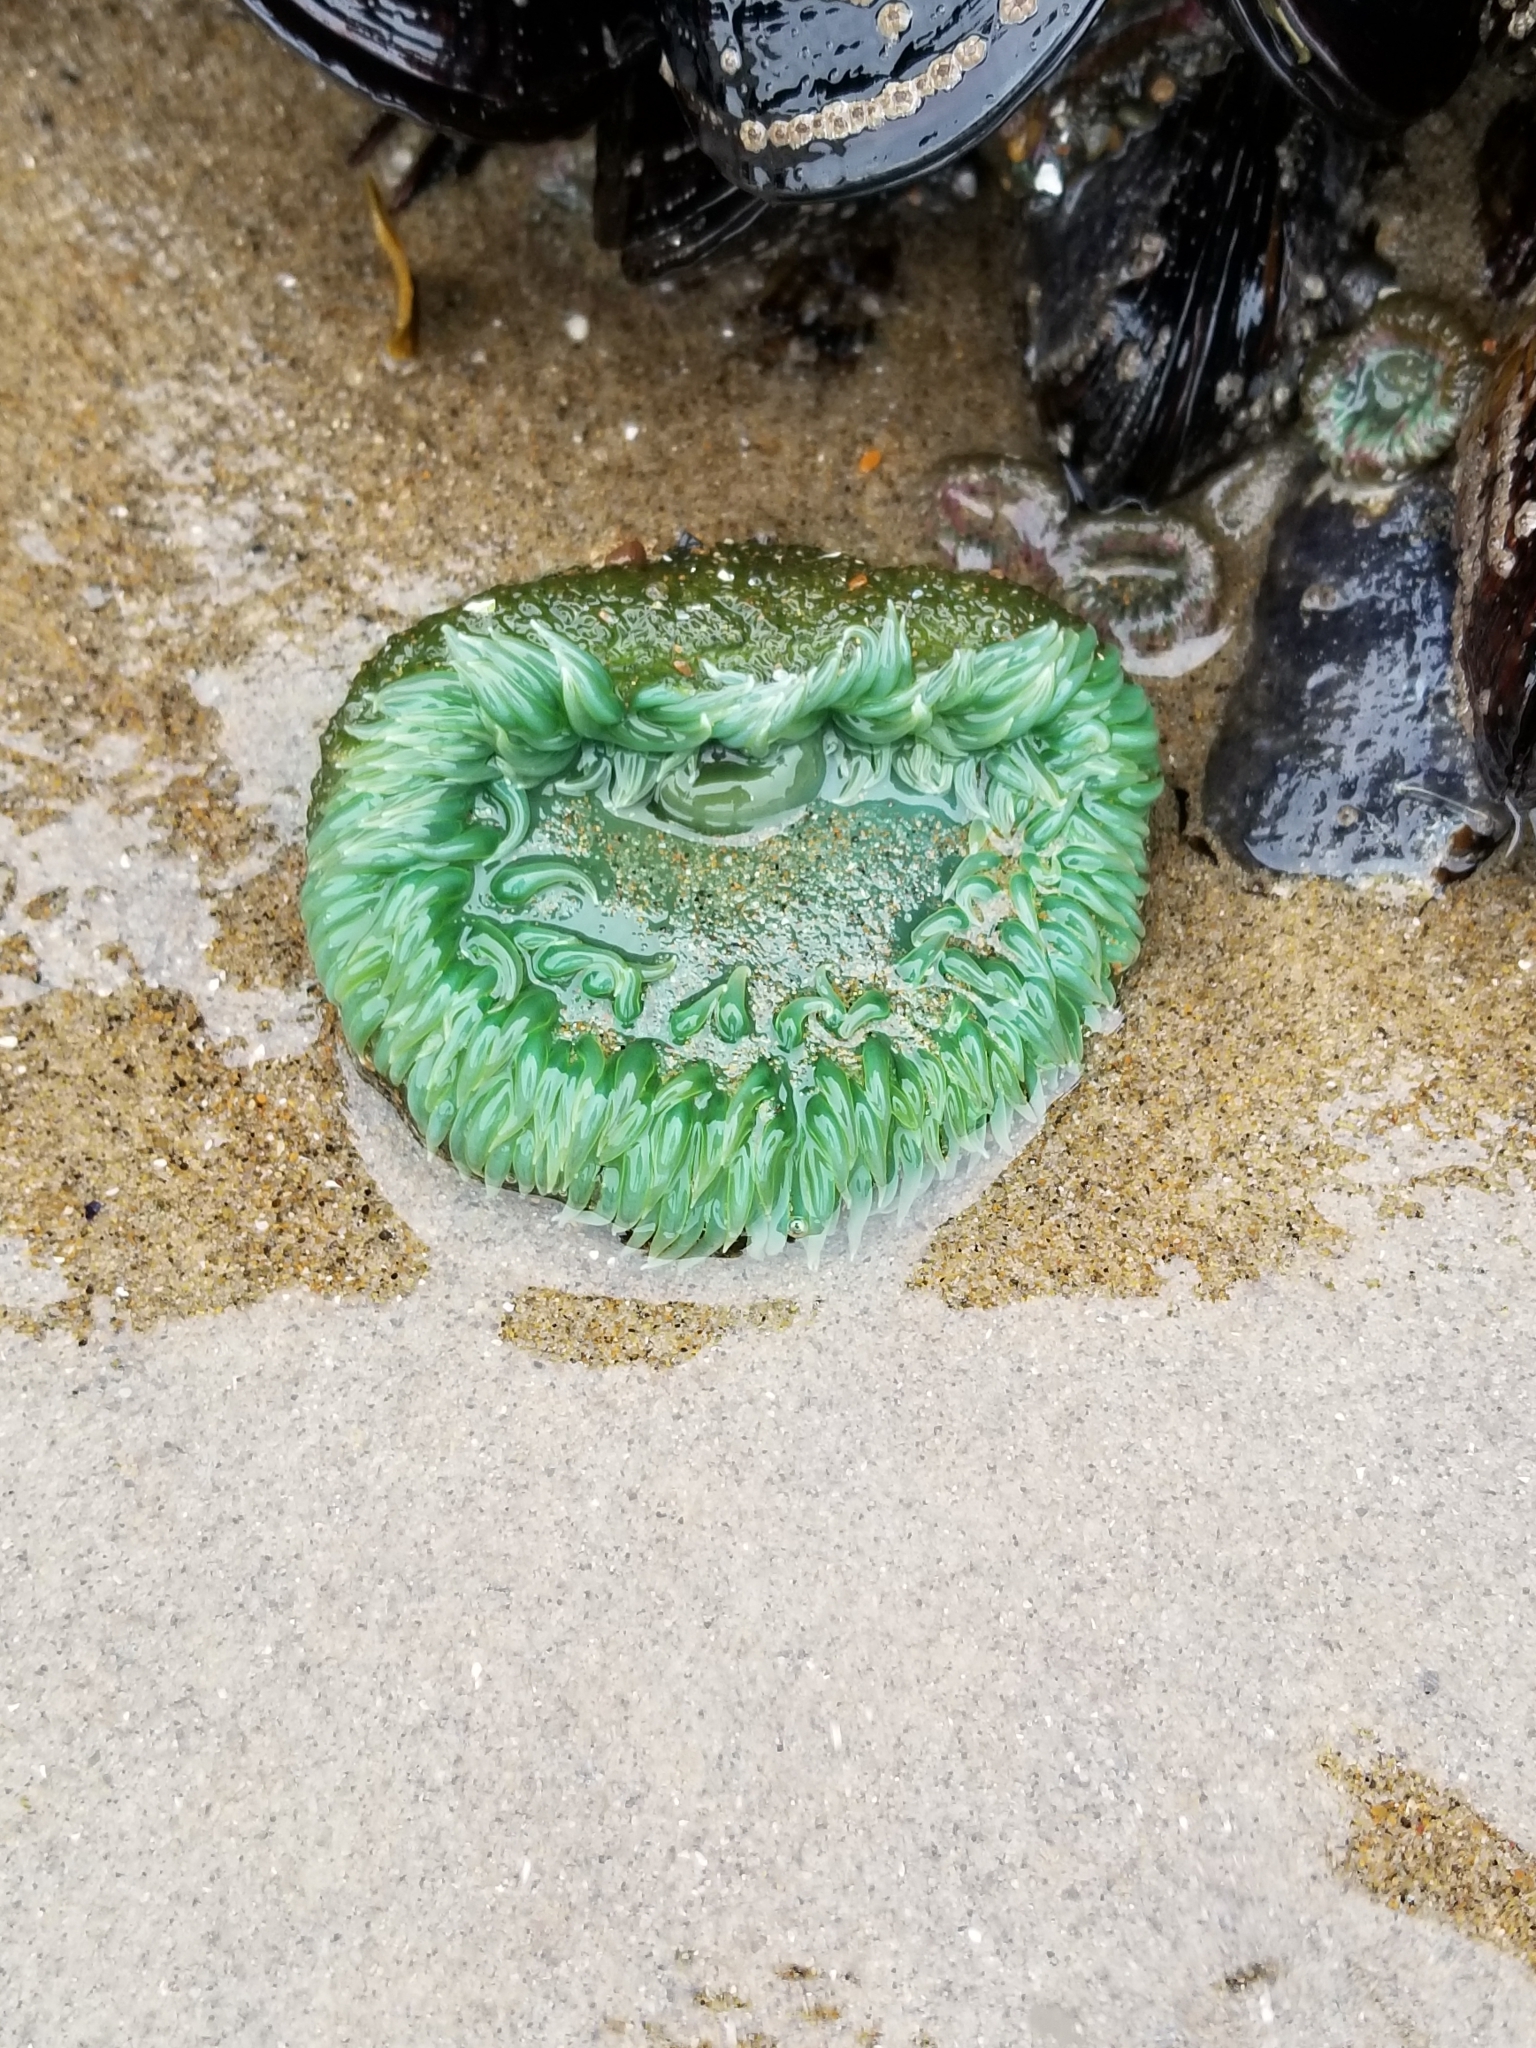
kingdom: Animalia
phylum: Cnidaria
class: Anthozoa
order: Actiniaria
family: Actiniidae
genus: Anthopleura
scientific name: Anthopleura xanthogrammica
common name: Giant green anemone
